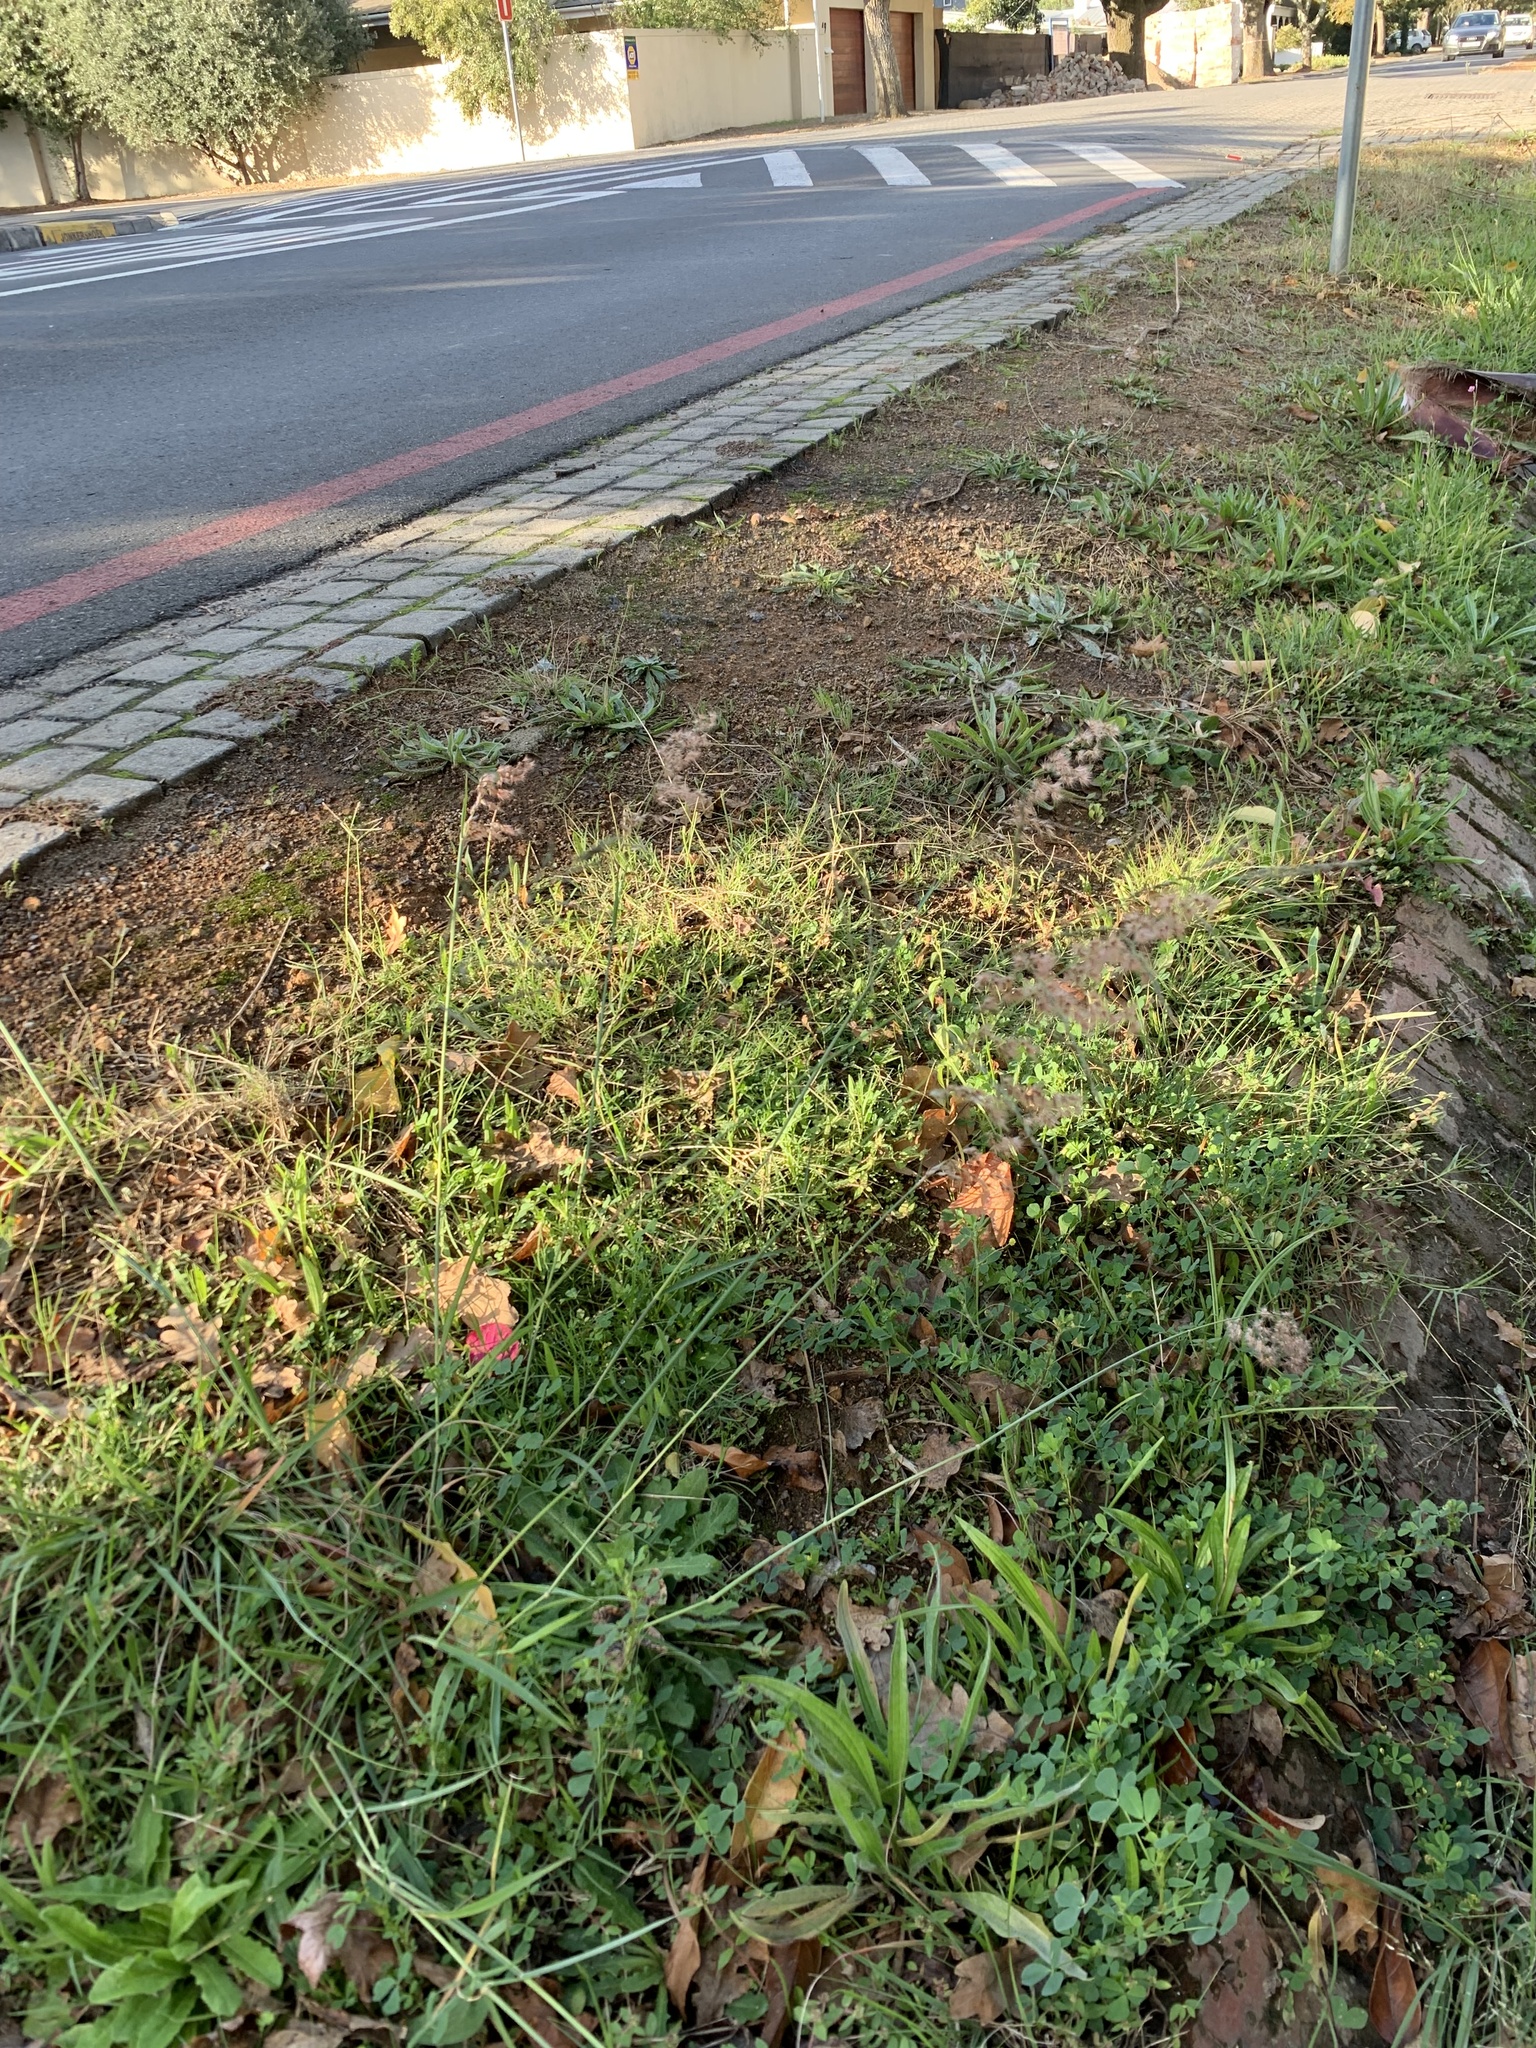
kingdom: Plantae
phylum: Tracheophyta
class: Liliopsida
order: Poales
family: Poaceae
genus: Melinis
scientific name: Melinis repens
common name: Rose natal grass
